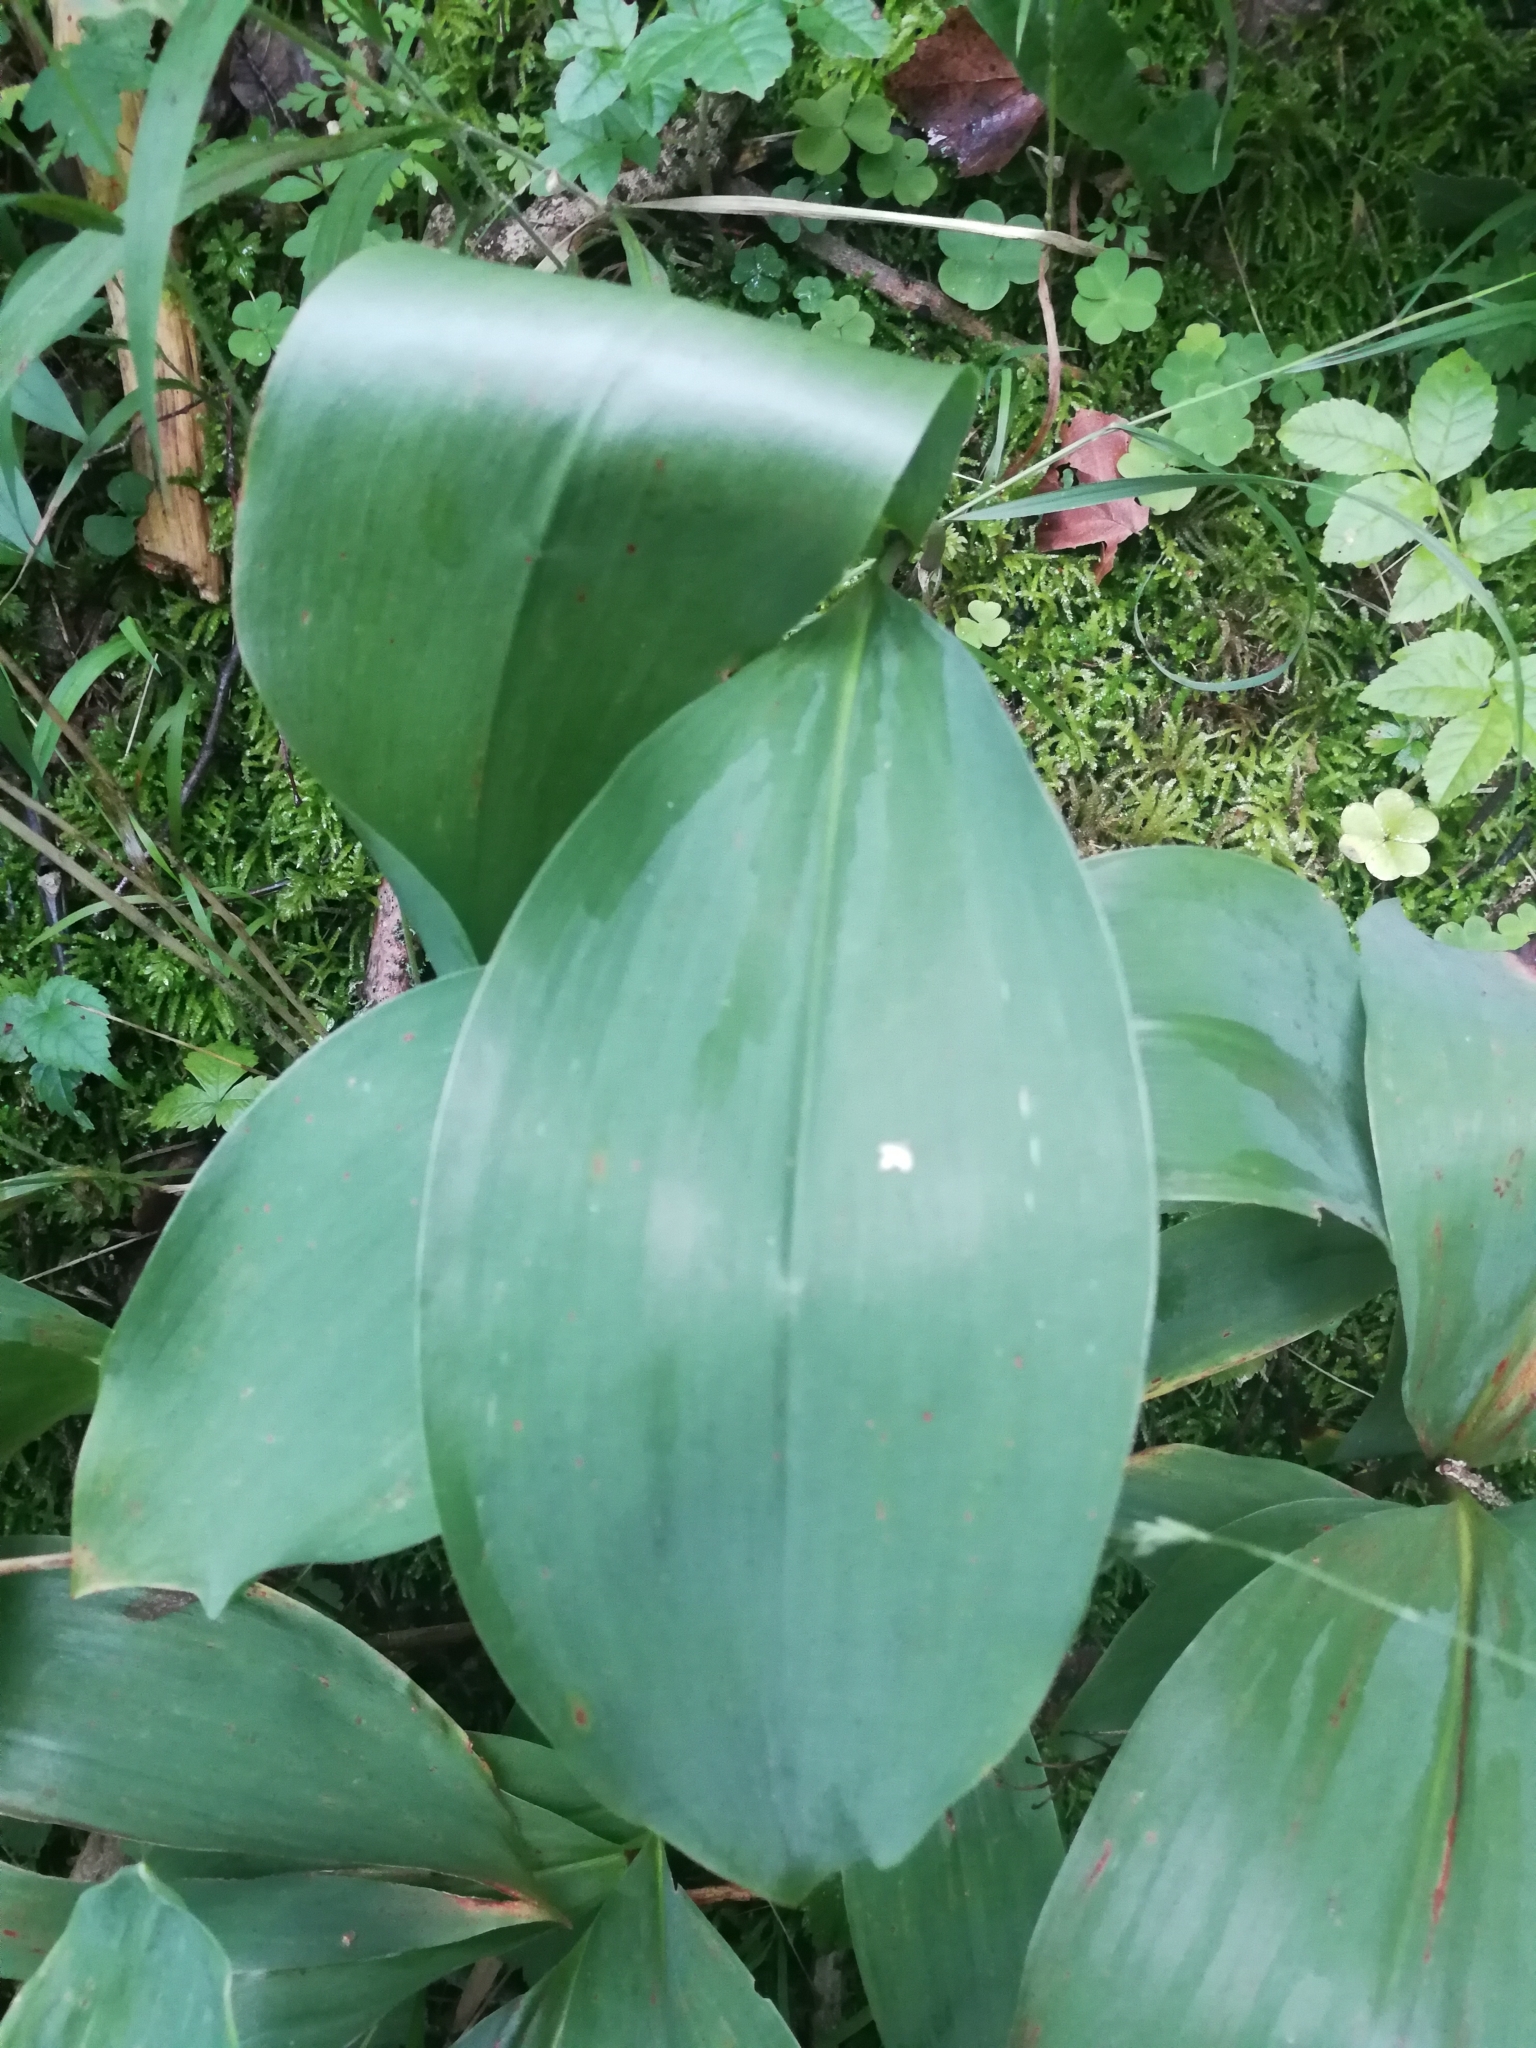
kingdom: Plantae
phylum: Tracheophyta
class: Liliopsida
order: Asparagales
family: Asparagaceae
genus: Convallaria
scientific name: Convallaria majalis
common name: Lily-of-the-valley
